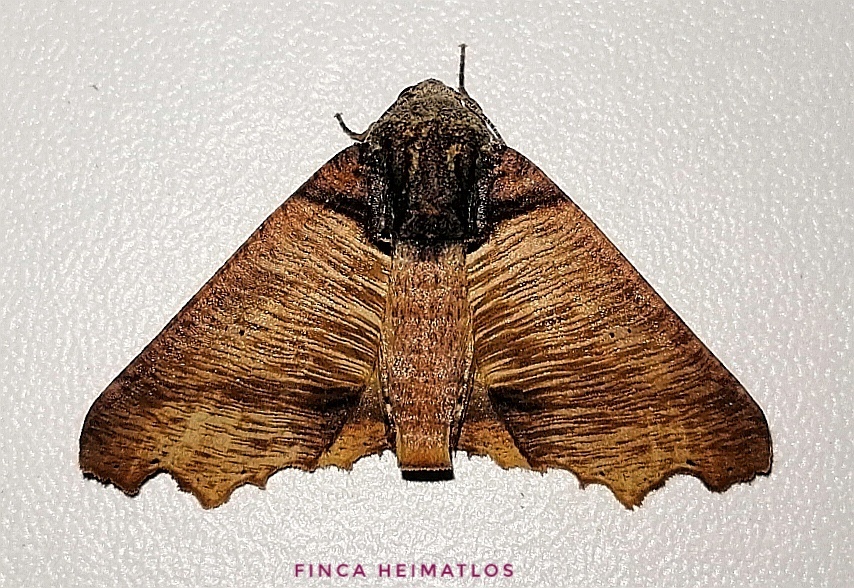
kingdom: Animalia
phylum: Arthropoda
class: Insecta
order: Lepidoptera
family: Geometridae
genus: Pero
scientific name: Pero polygonaria
